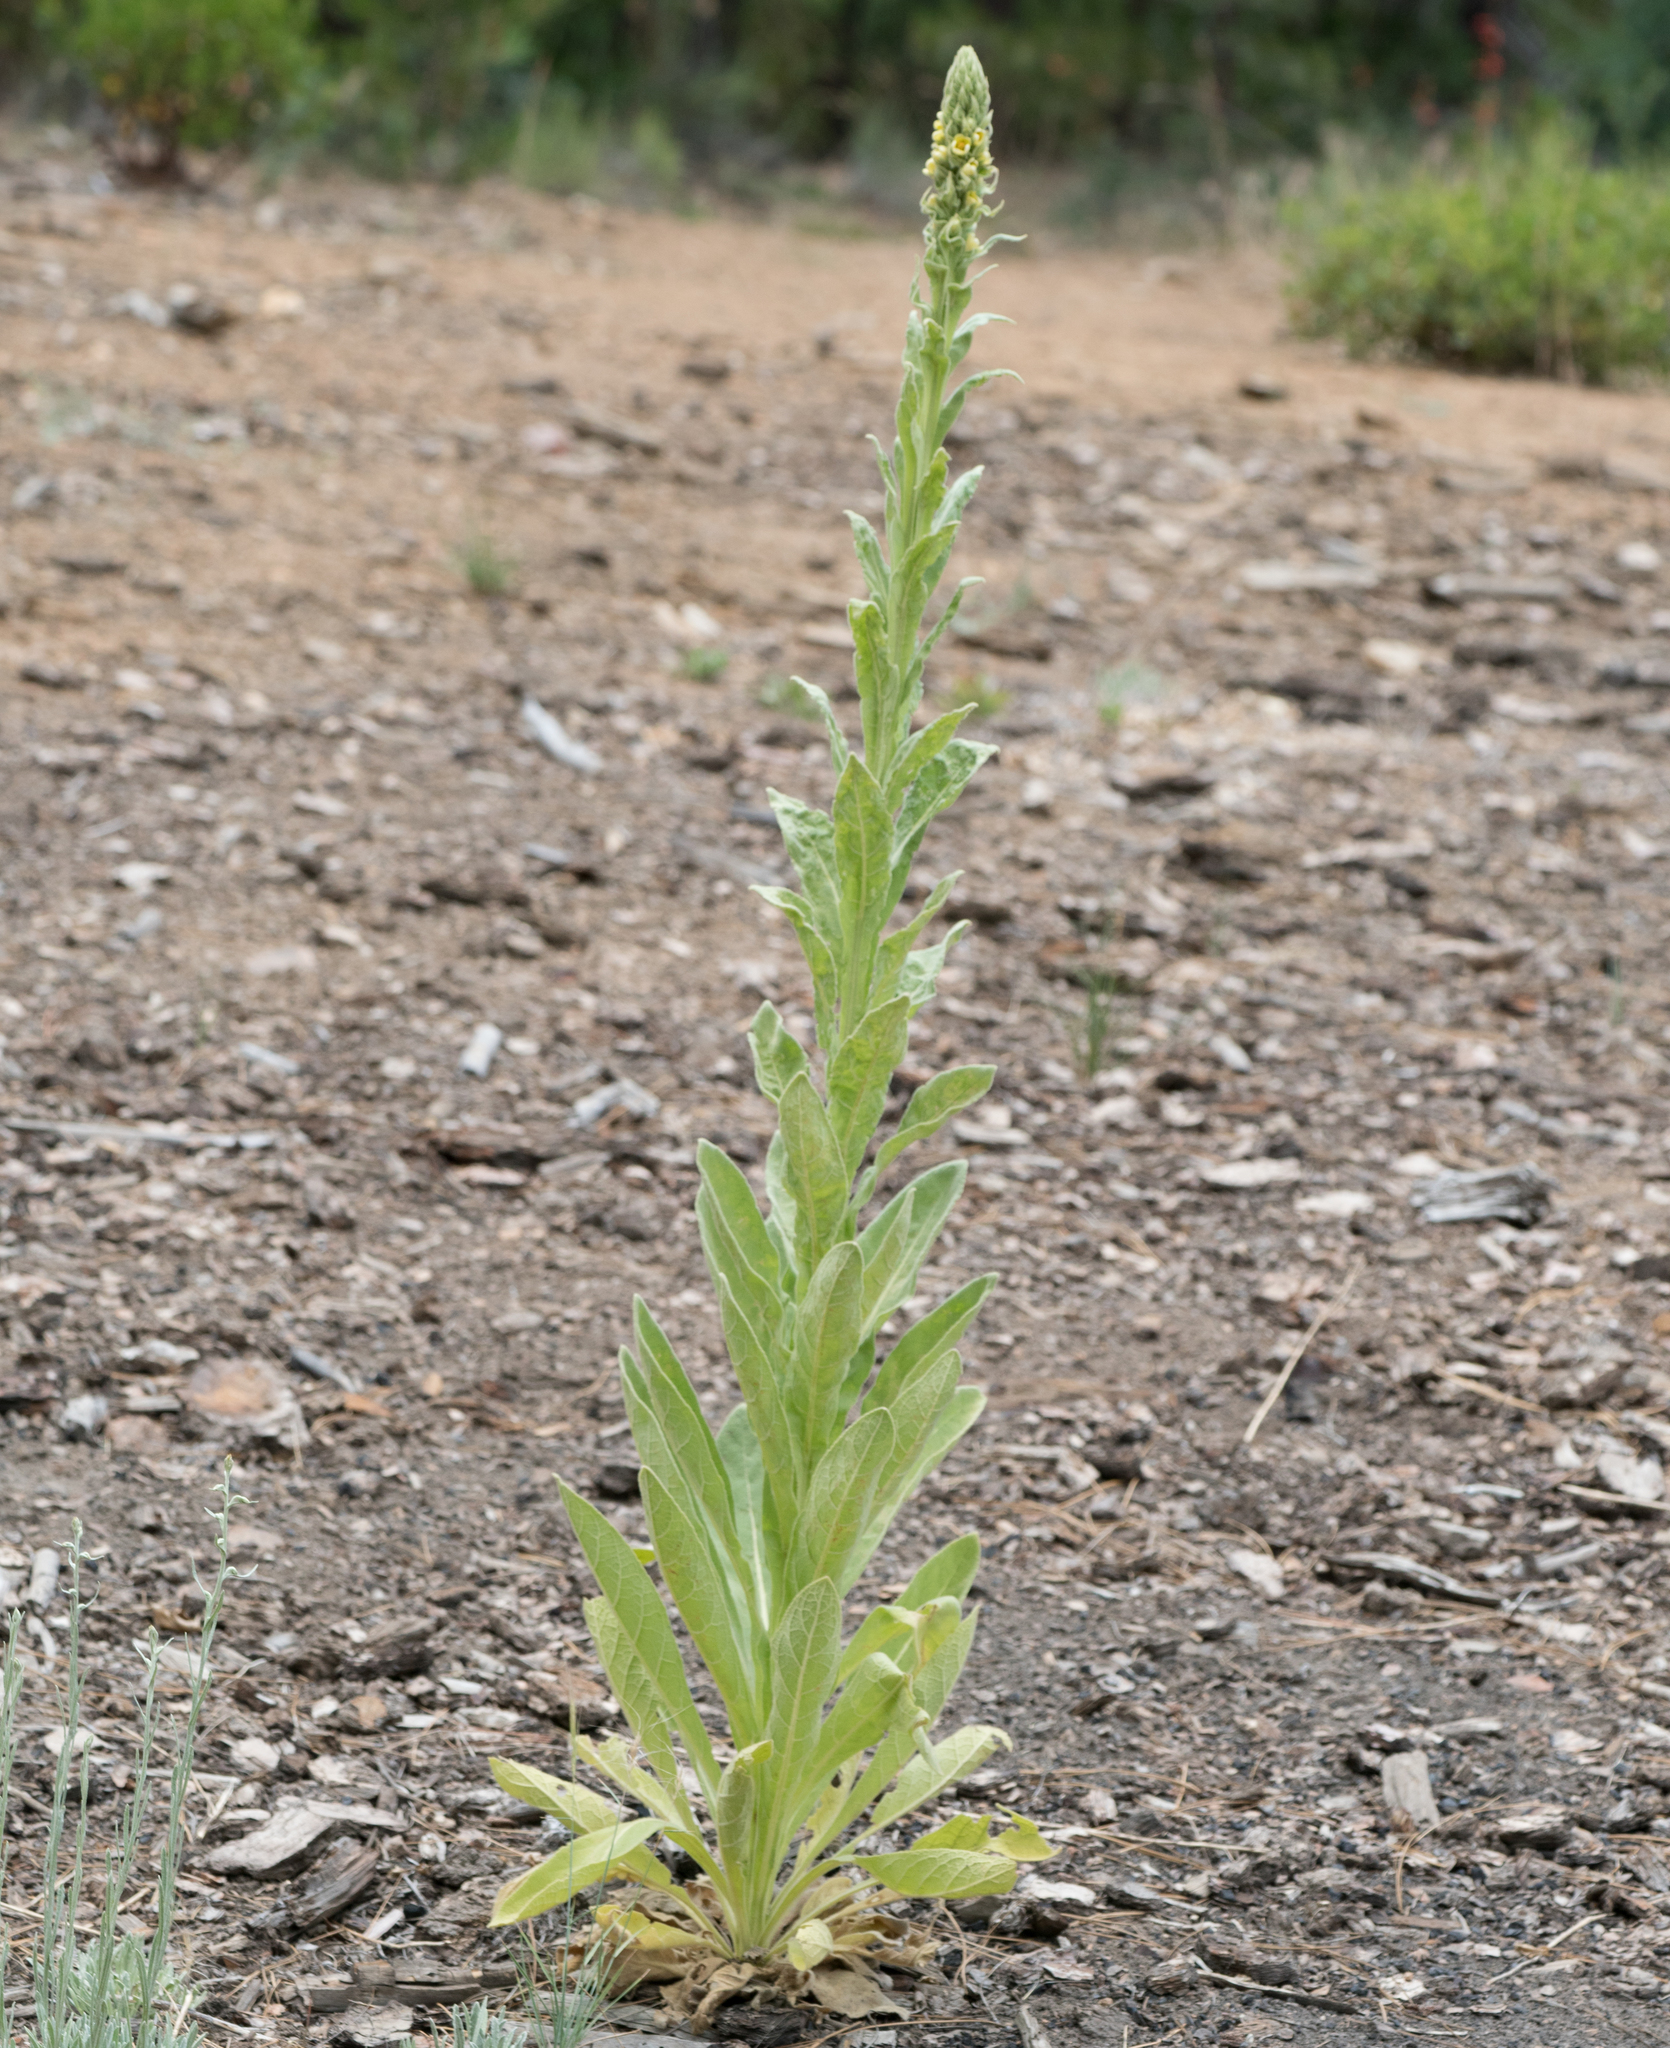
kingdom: Plantae
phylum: Tracheophyta
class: Magnoliopsida
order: Lamiales
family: Scrophulariaceae
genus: Verbascum
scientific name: Verbascum thapsus
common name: Common mullein
